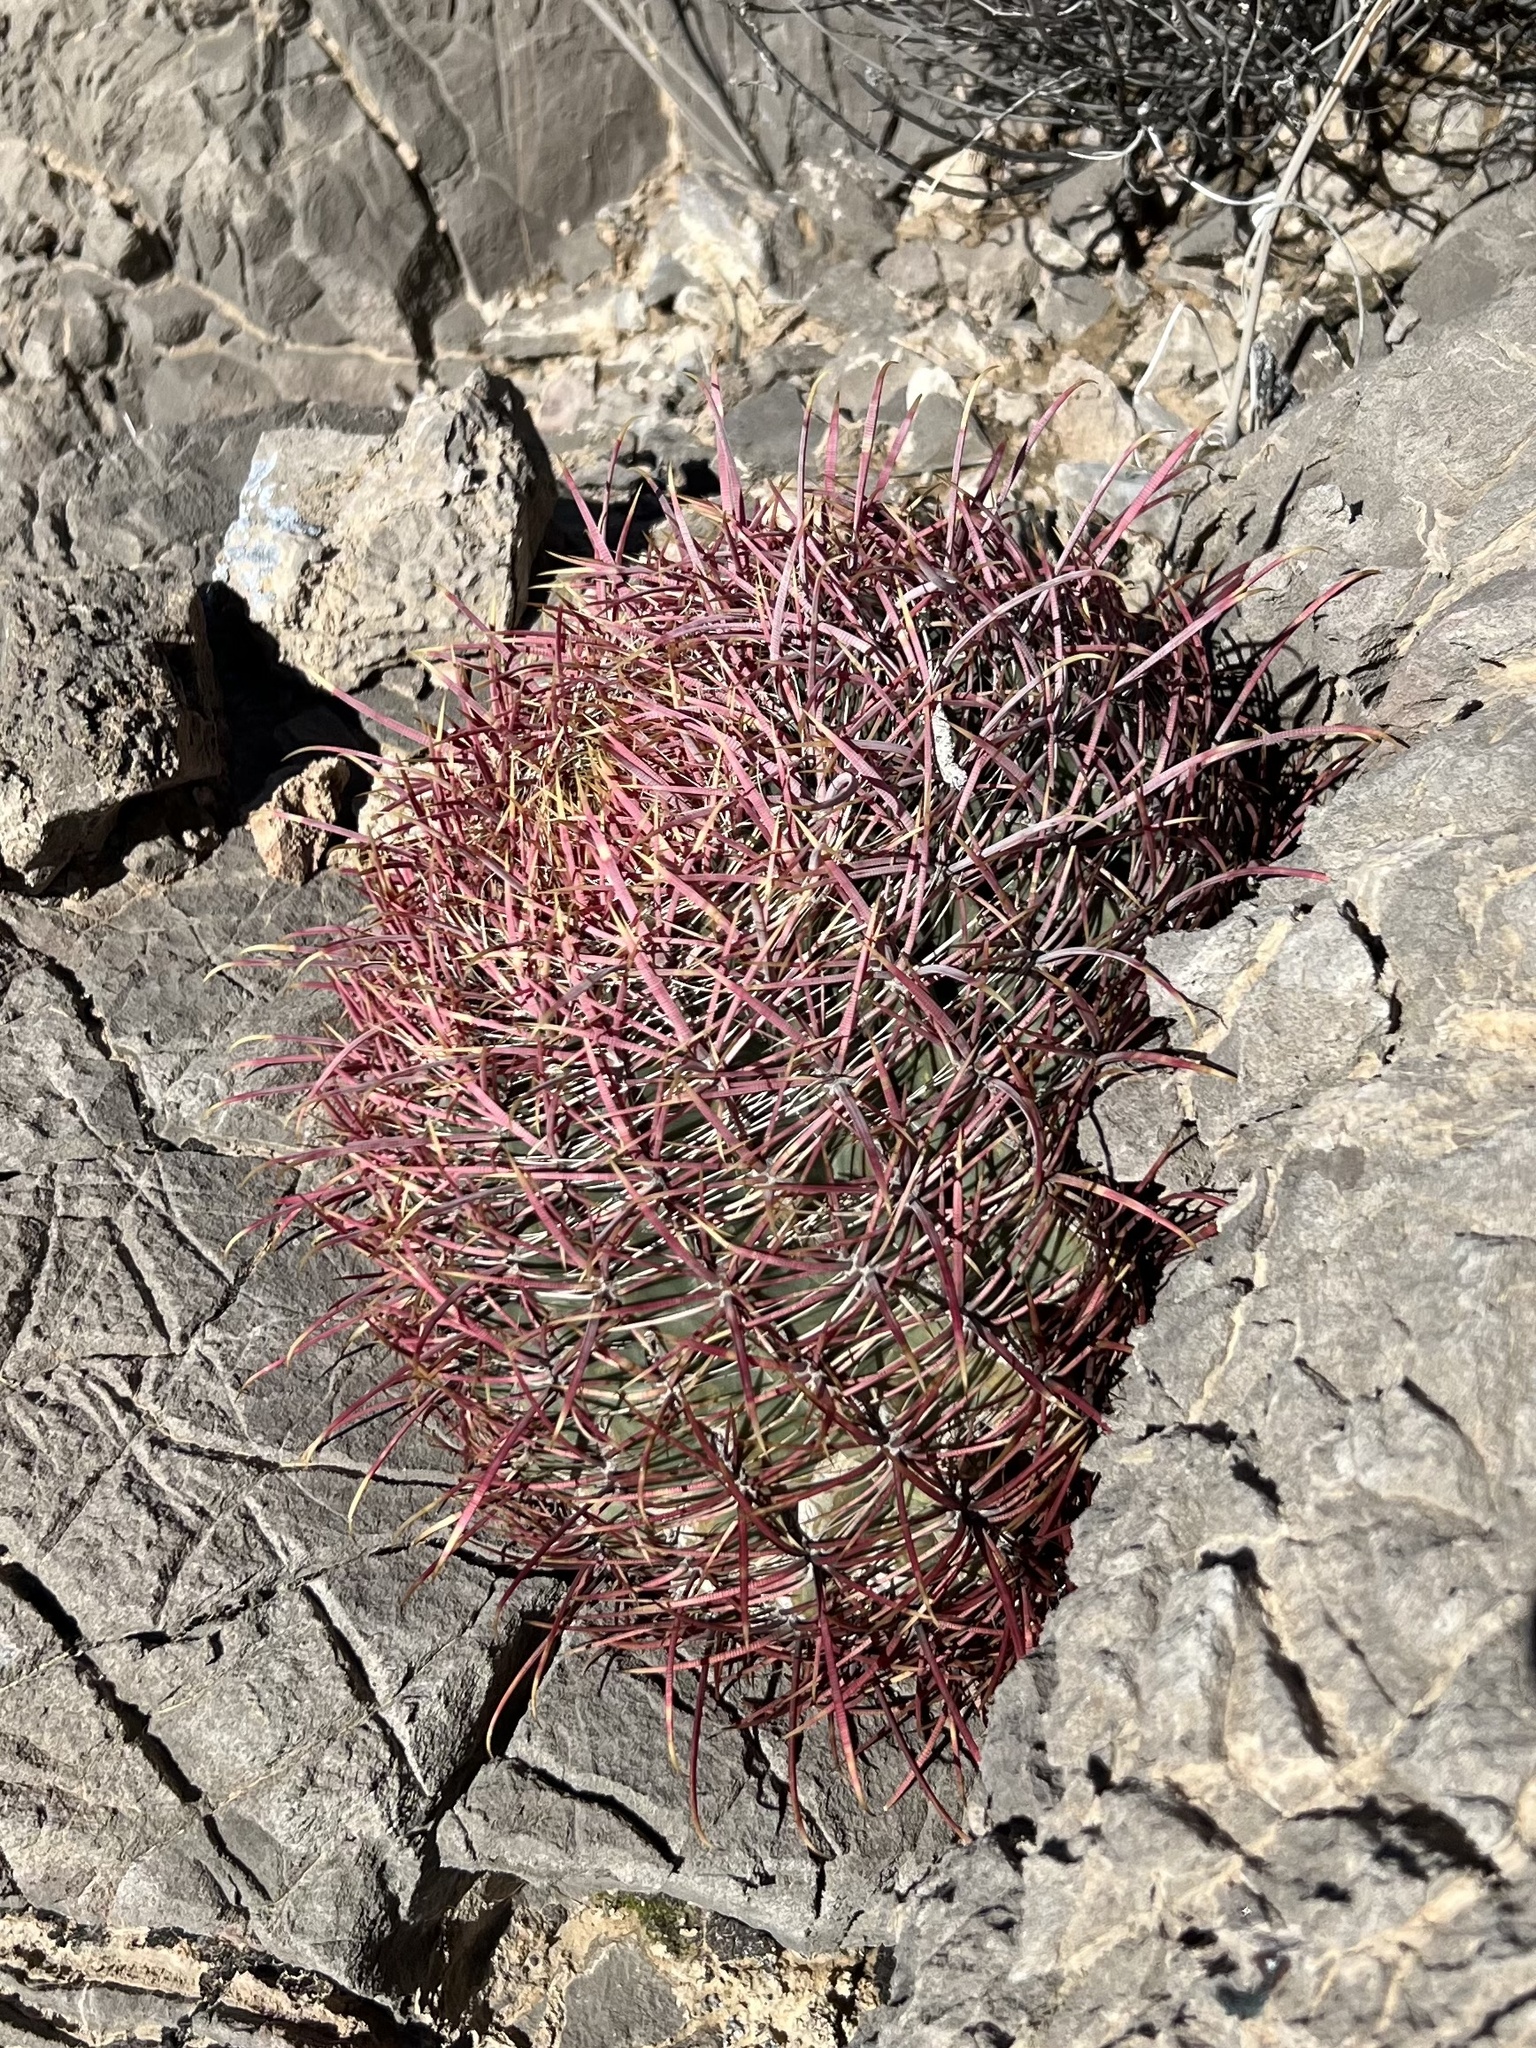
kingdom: Plantae
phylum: Tracheophyta
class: Magnoliopsida
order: Caryophyllales
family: Cactaceae
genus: Ferocactus
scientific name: Ferocactus cylindraceus
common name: California barrel cactus
